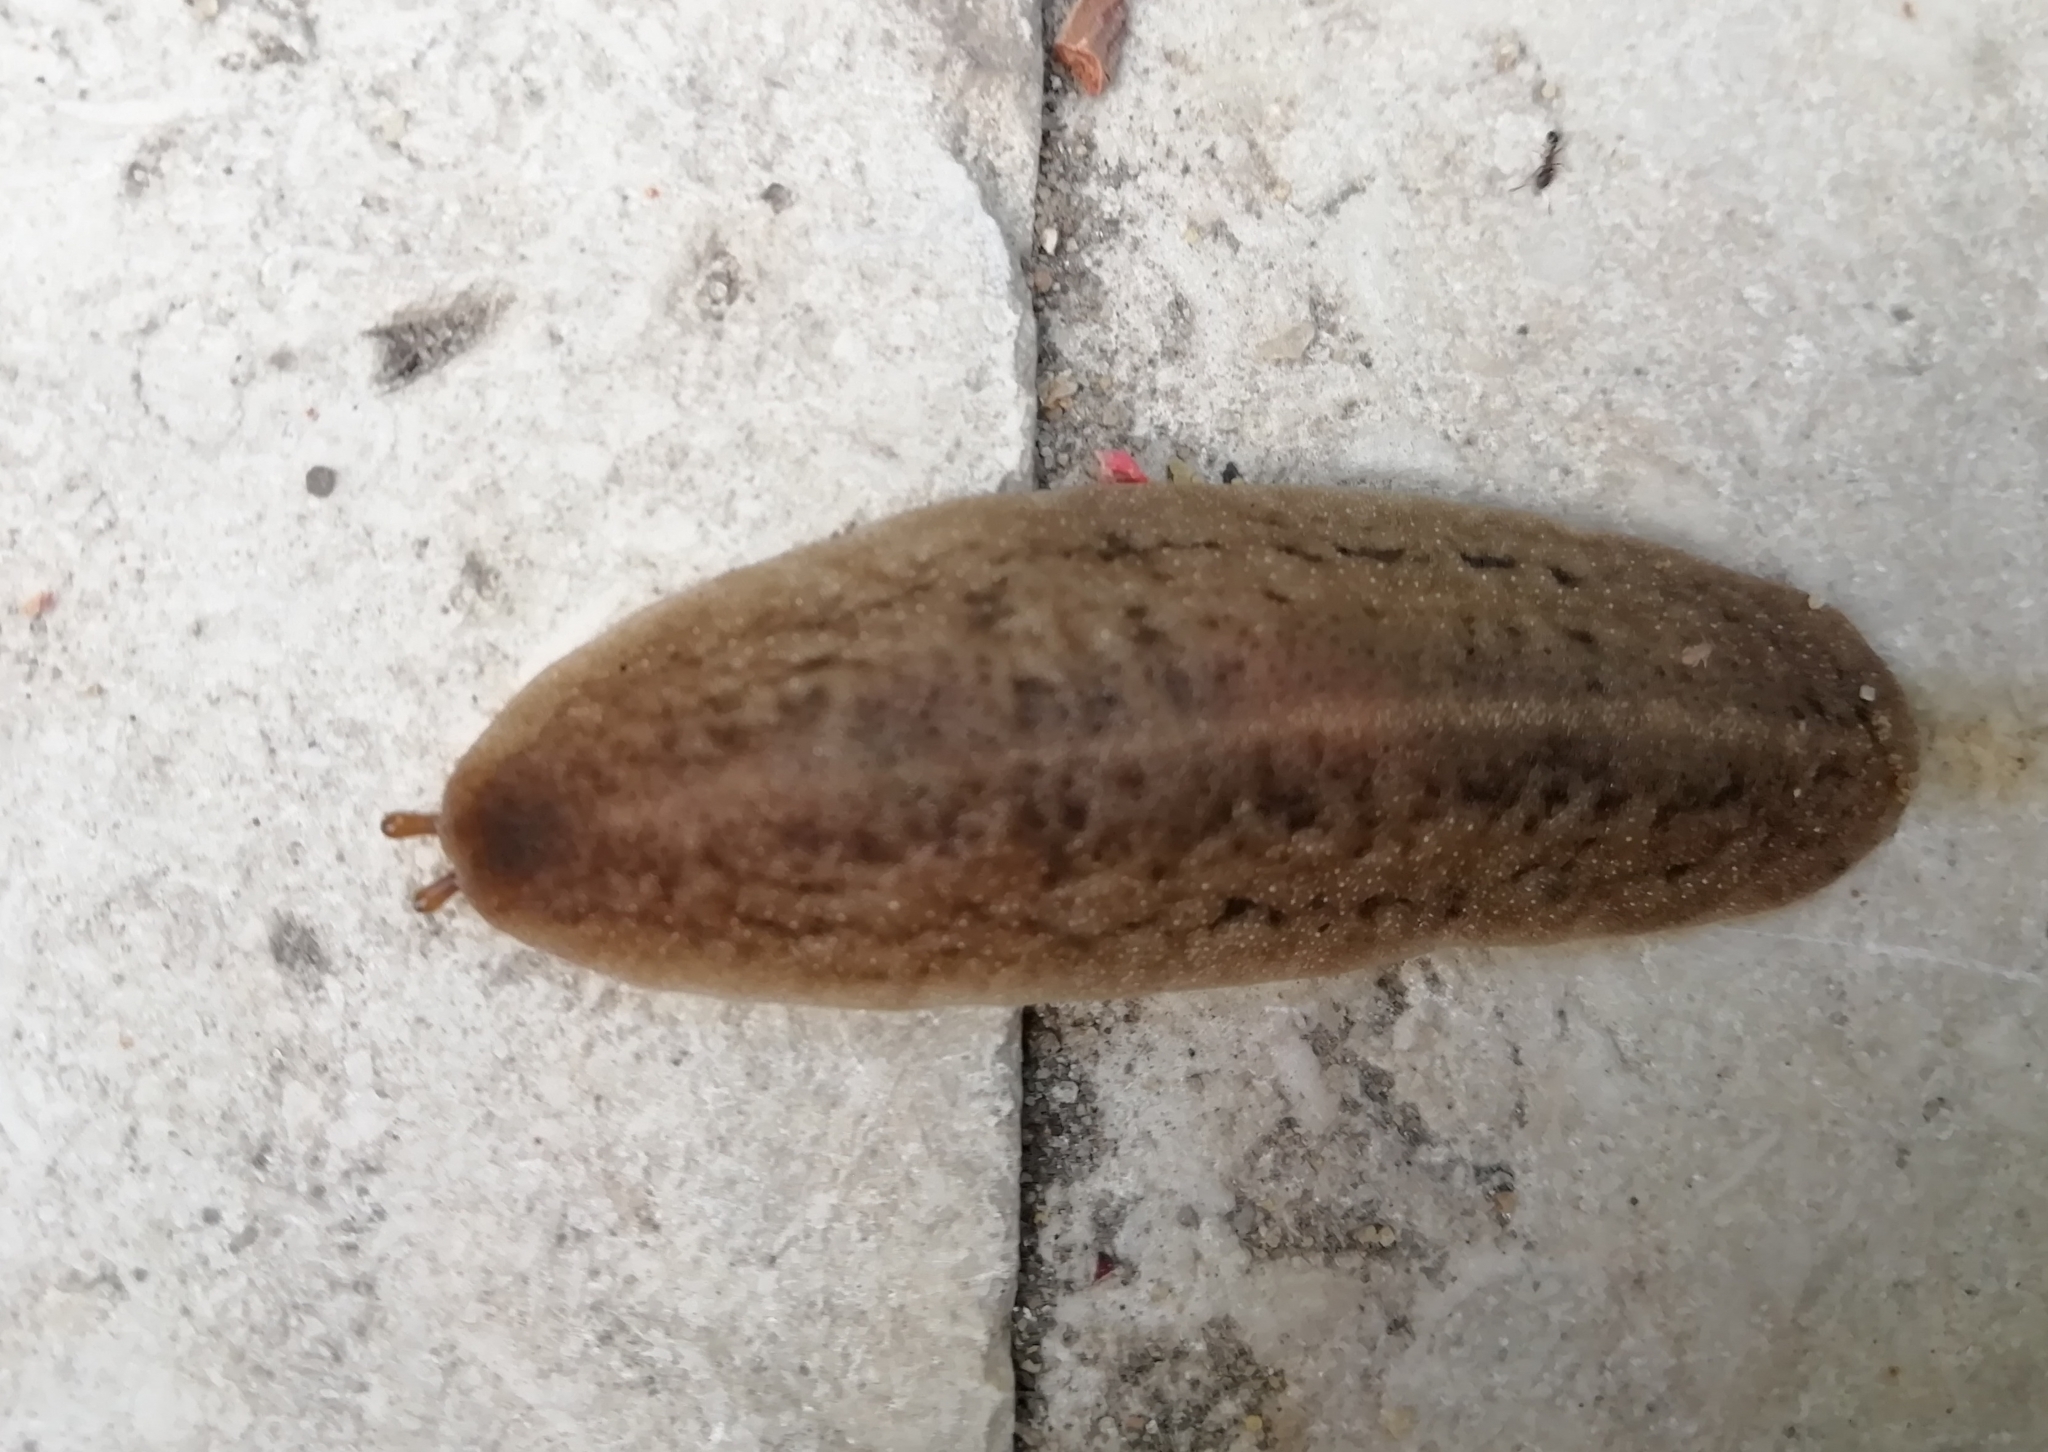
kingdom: Animalia
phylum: Mollusca
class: Gastropoda
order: Systellommatophora
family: Veronicellidae
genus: Laevicaulis
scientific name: Laevicaulis stuhlmanni
